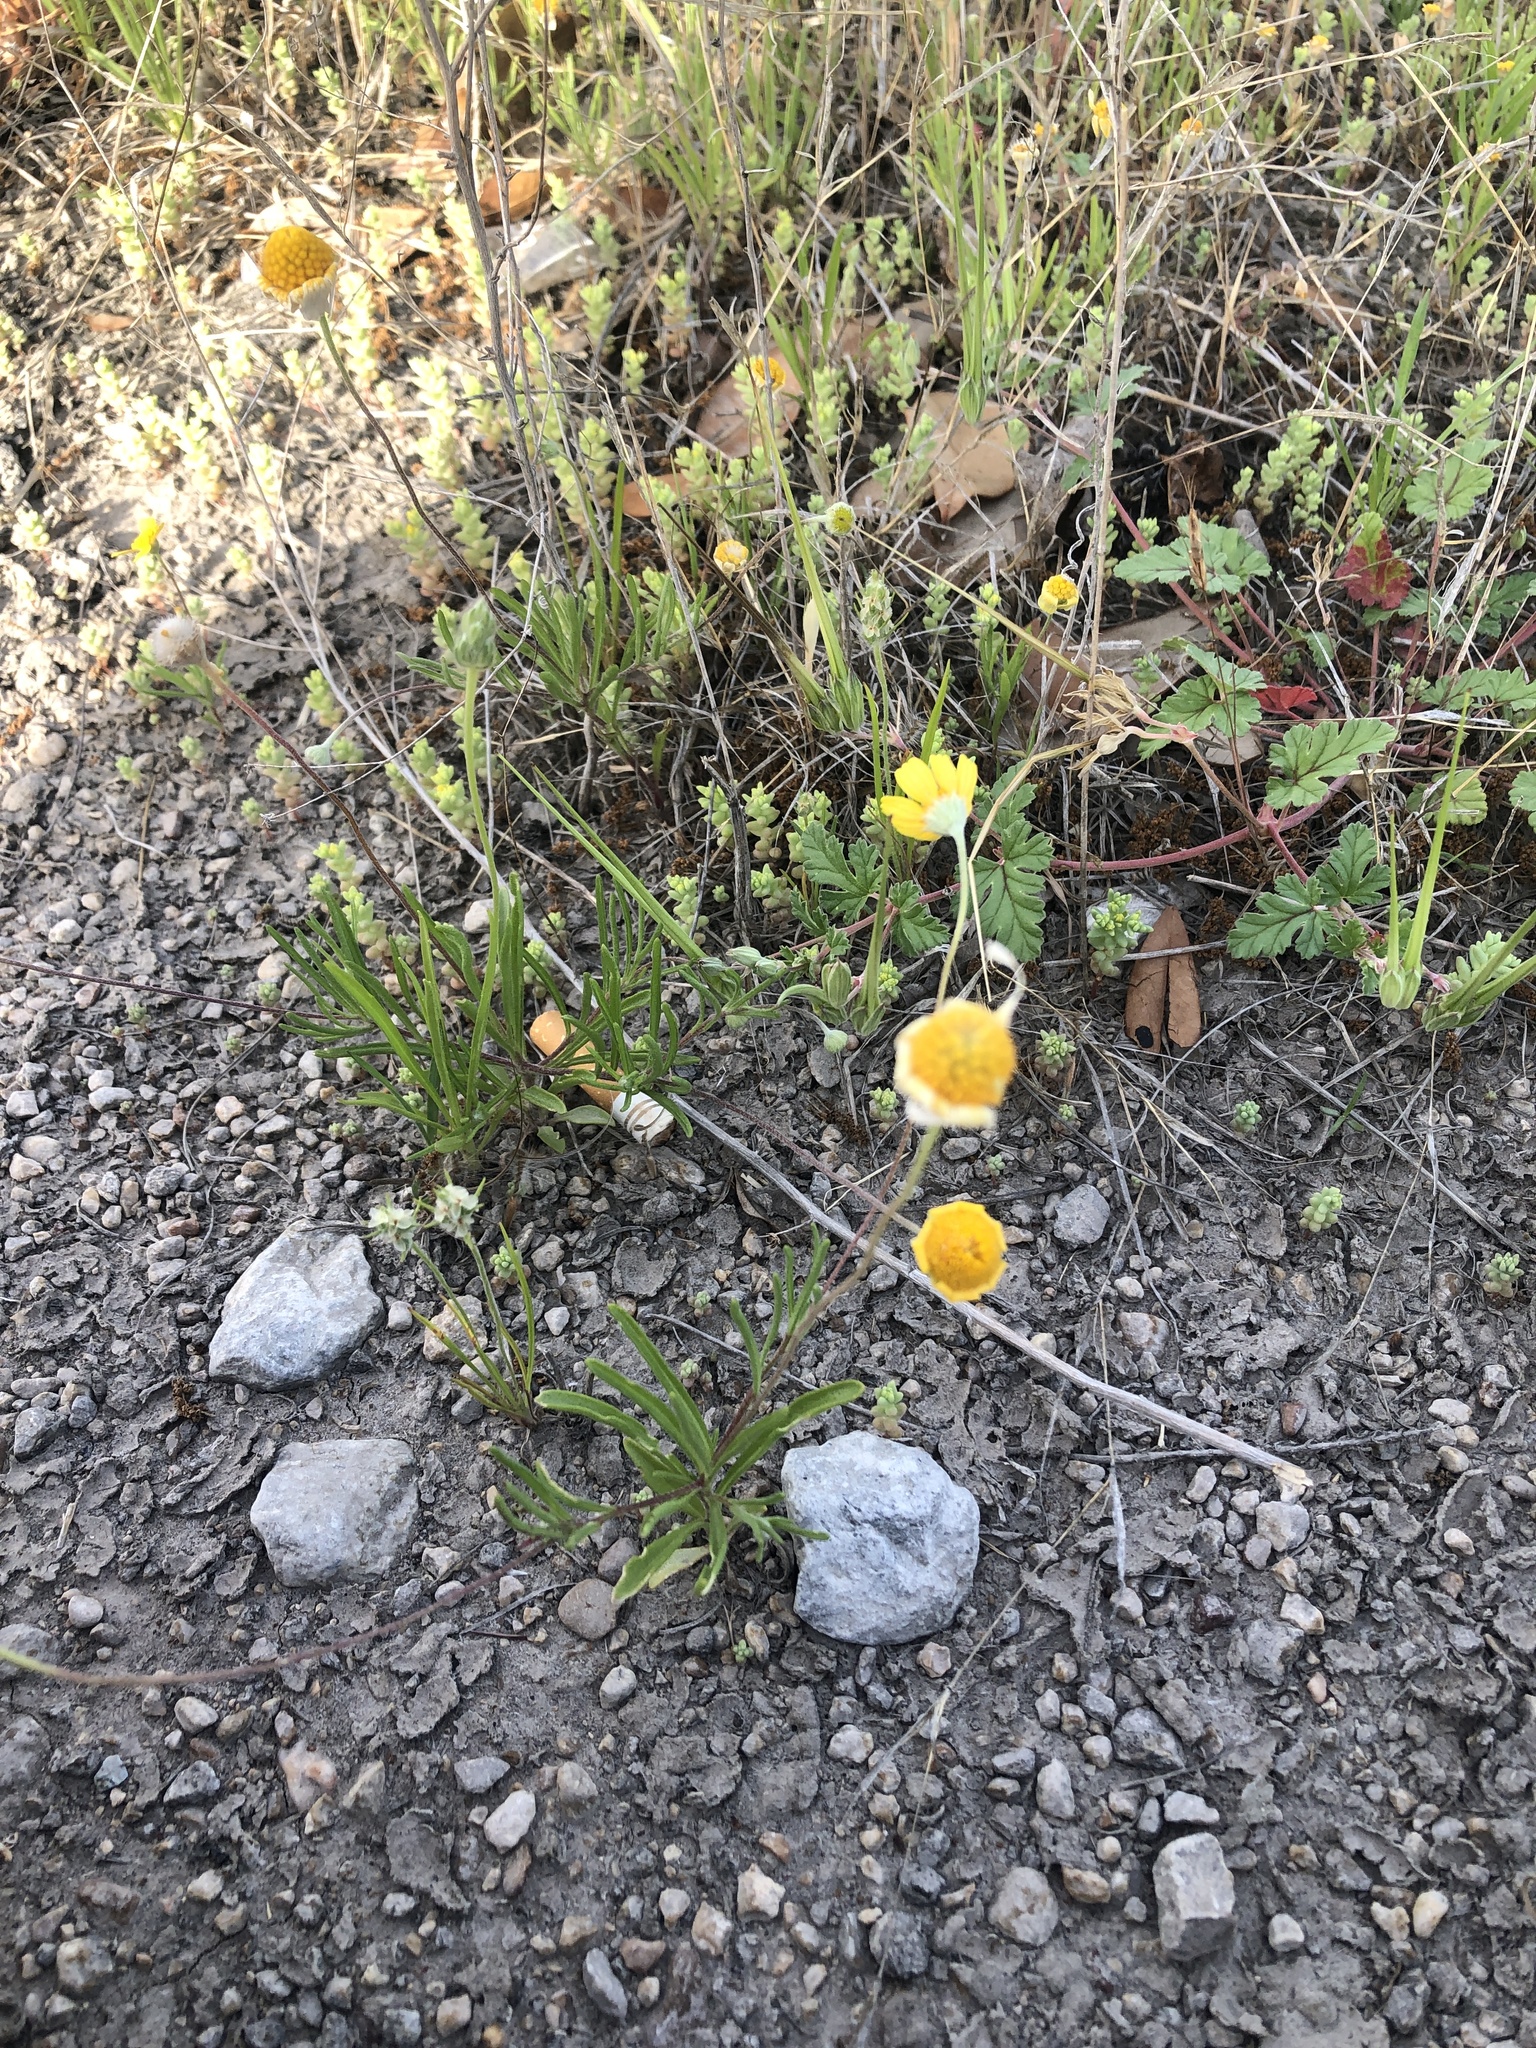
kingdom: Plantae
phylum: Tracheophyta
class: Magnoliopsida
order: Asterales
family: Asteraceae
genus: Tetraneuris
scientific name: Tetraneuris linearifolia
